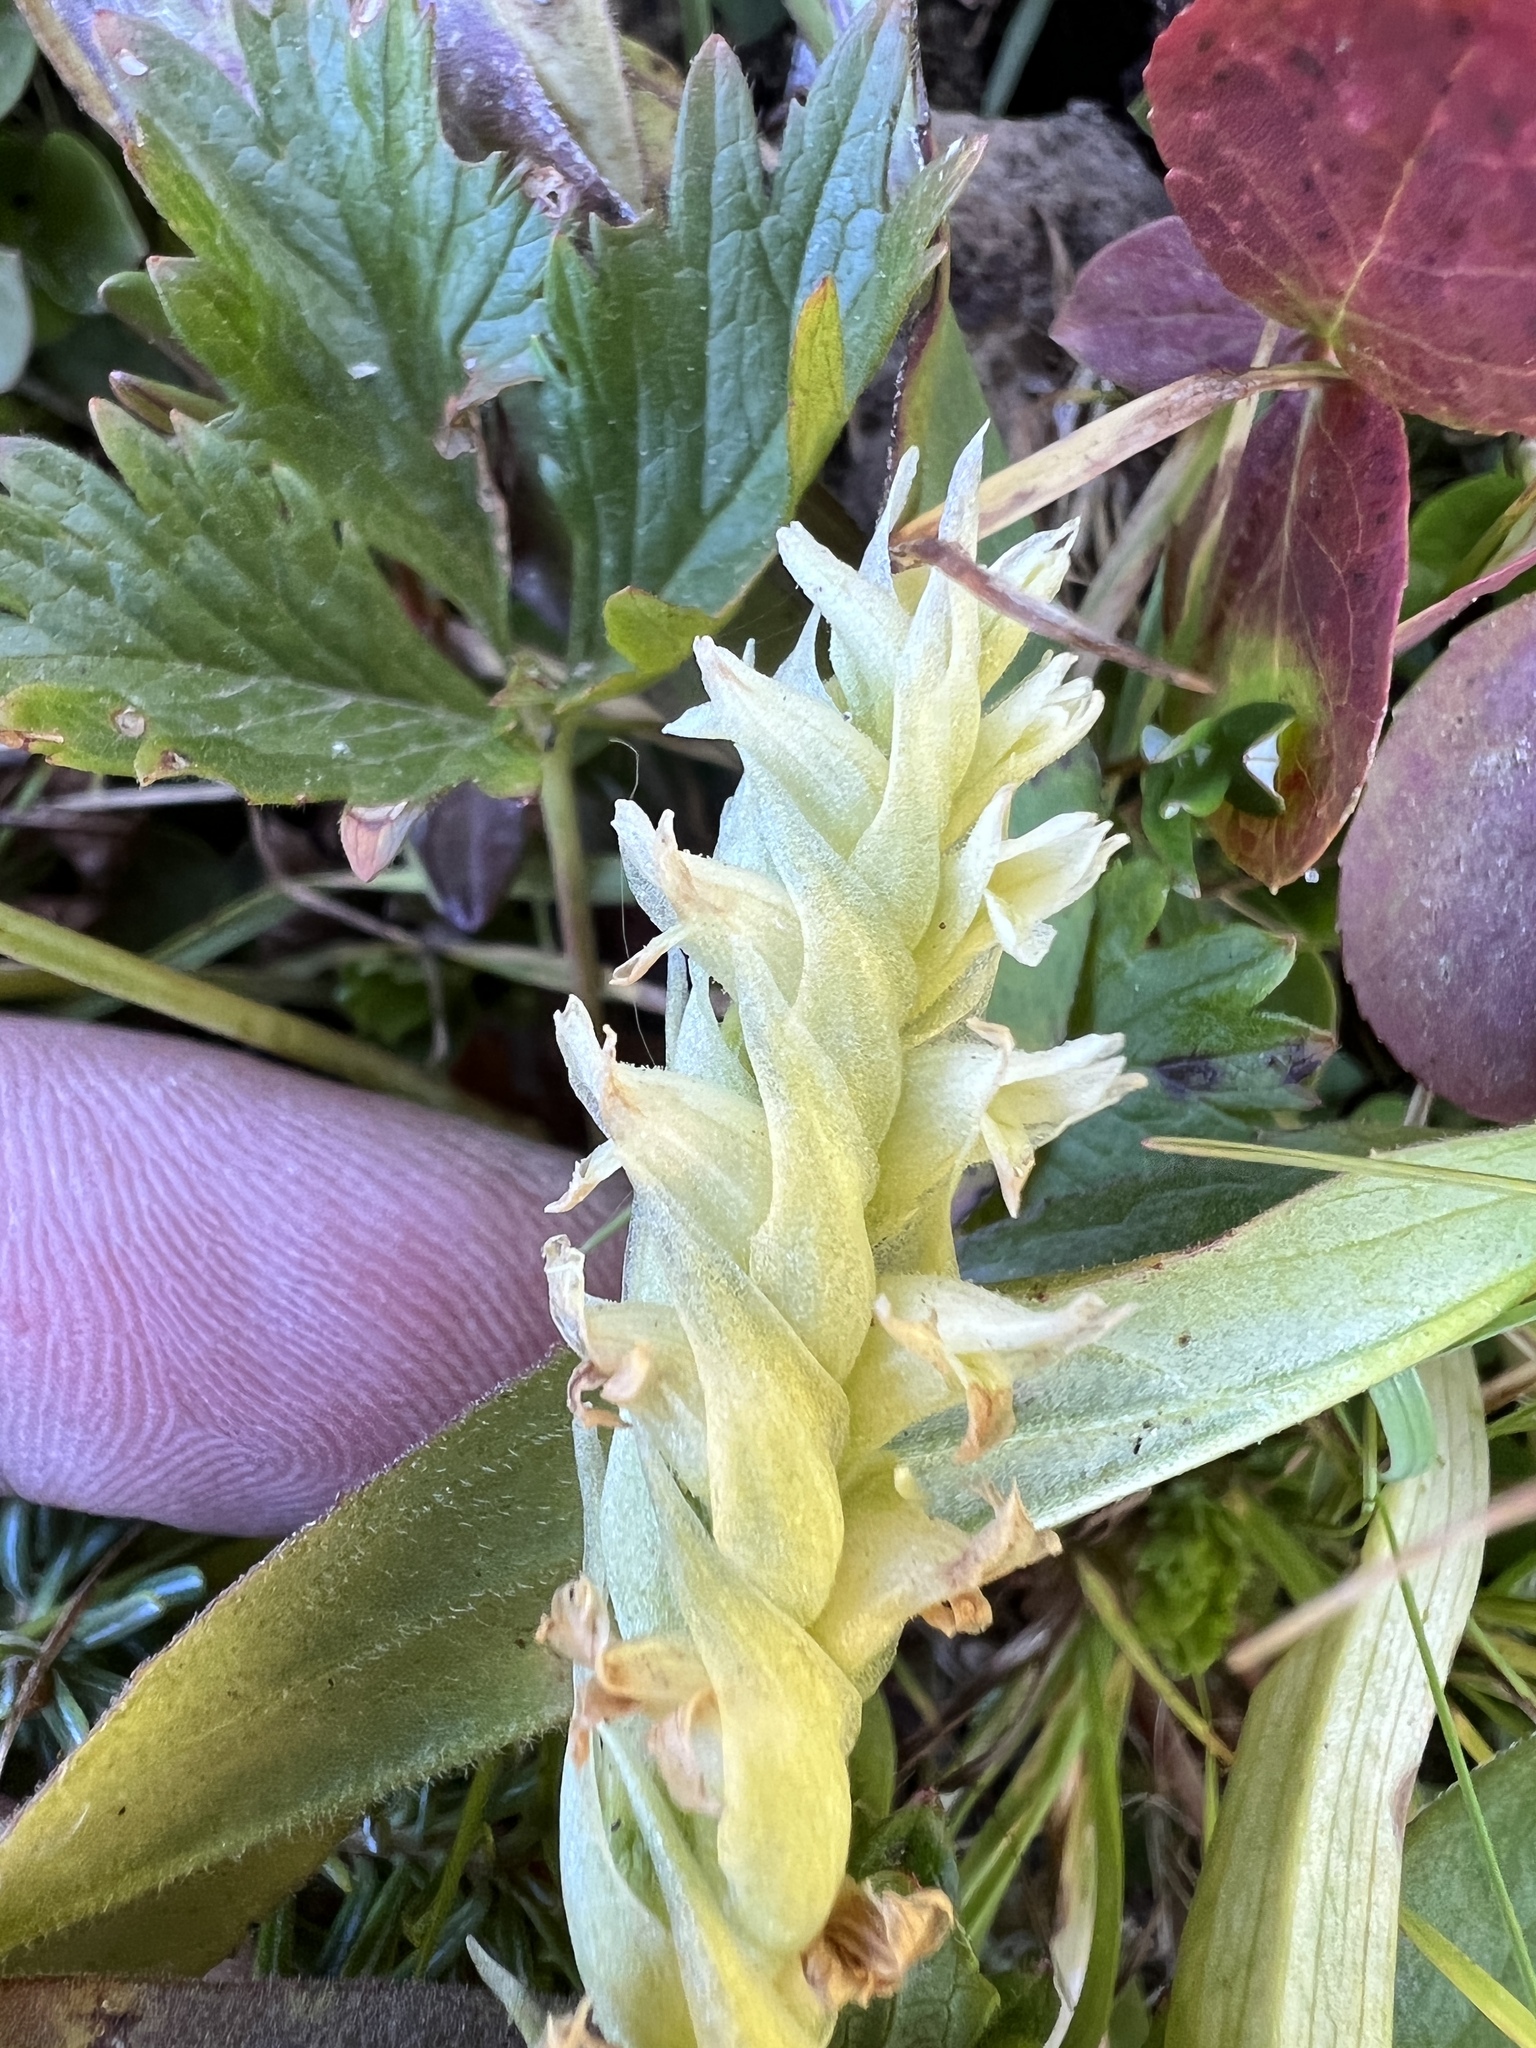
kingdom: Plantae
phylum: Tracheophyta
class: Liliopsida
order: Asparagales
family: Orchidaceae
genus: Spiranthes
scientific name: Spiranthes romanzoffiana
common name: Irish lady's-tresses
